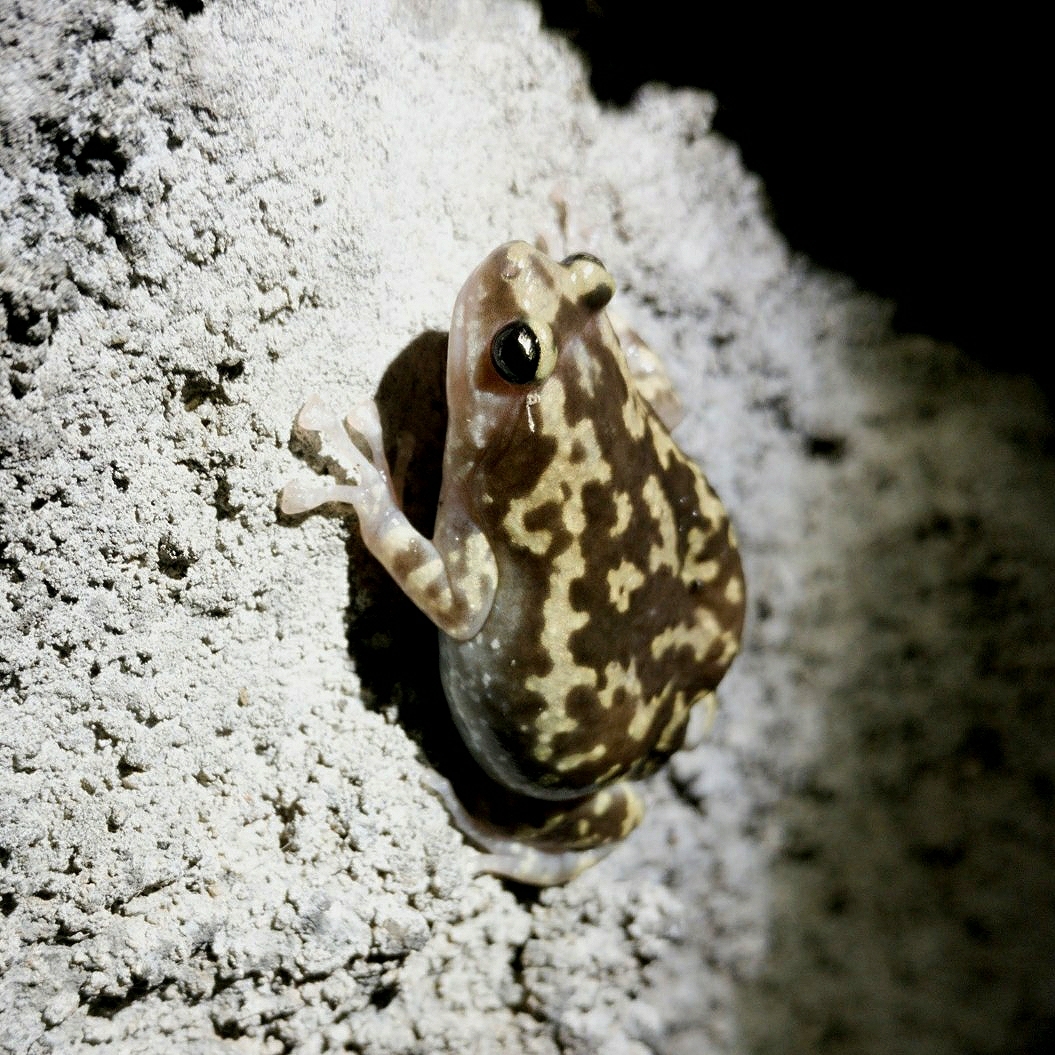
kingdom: Animalia
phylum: Chordata
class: Amphibia
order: Anura
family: Microhylidae
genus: Uperodon
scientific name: Uperodon variegatus
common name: Eluru dot frog
